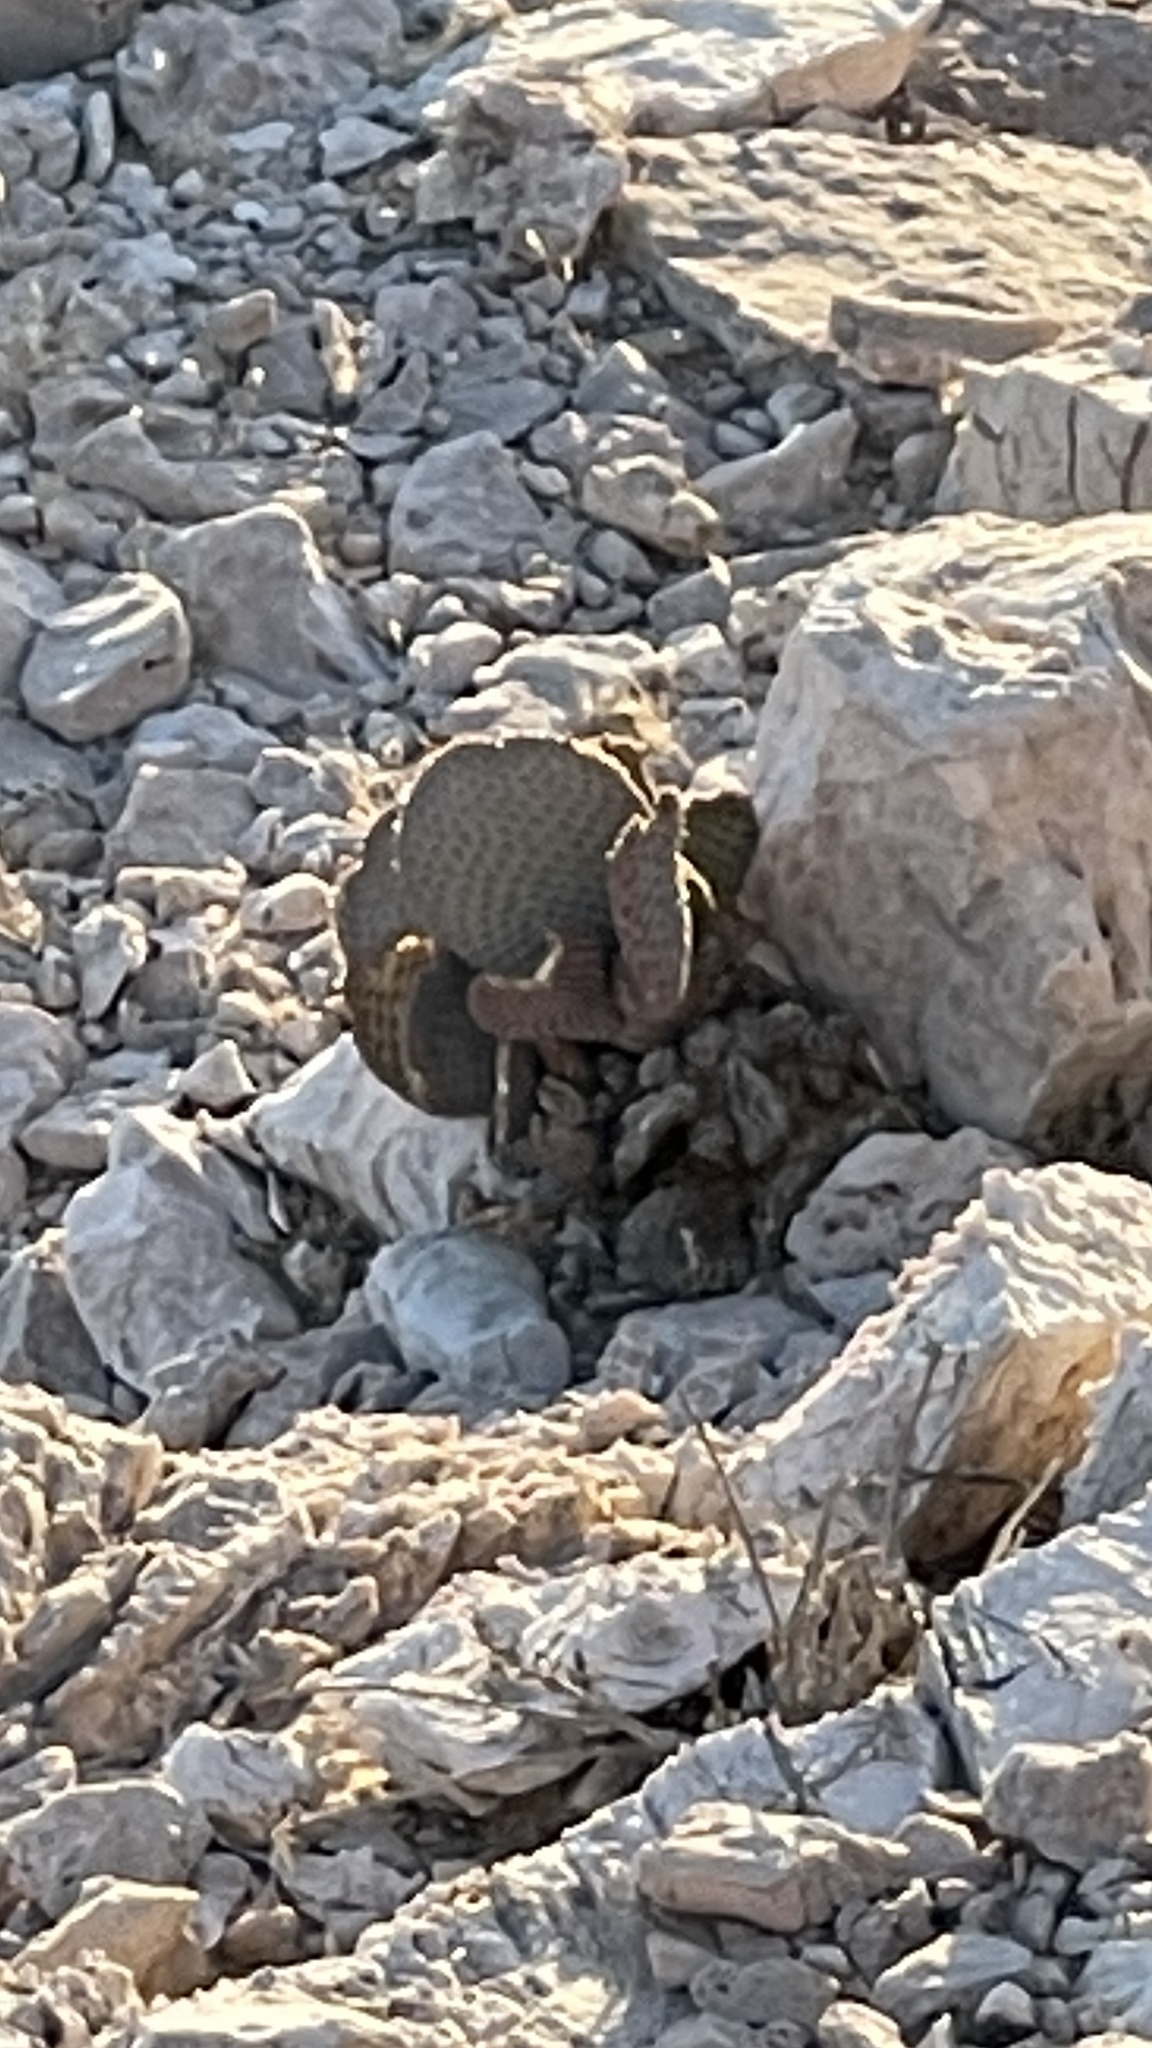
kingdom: Plantae
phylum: Tracheophyta
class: Magnoliopsida
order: Caryophyllales
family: Cactaceae
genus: Opuntia
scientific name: Opuntia basilaris
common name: Beavertail prickly-pear
